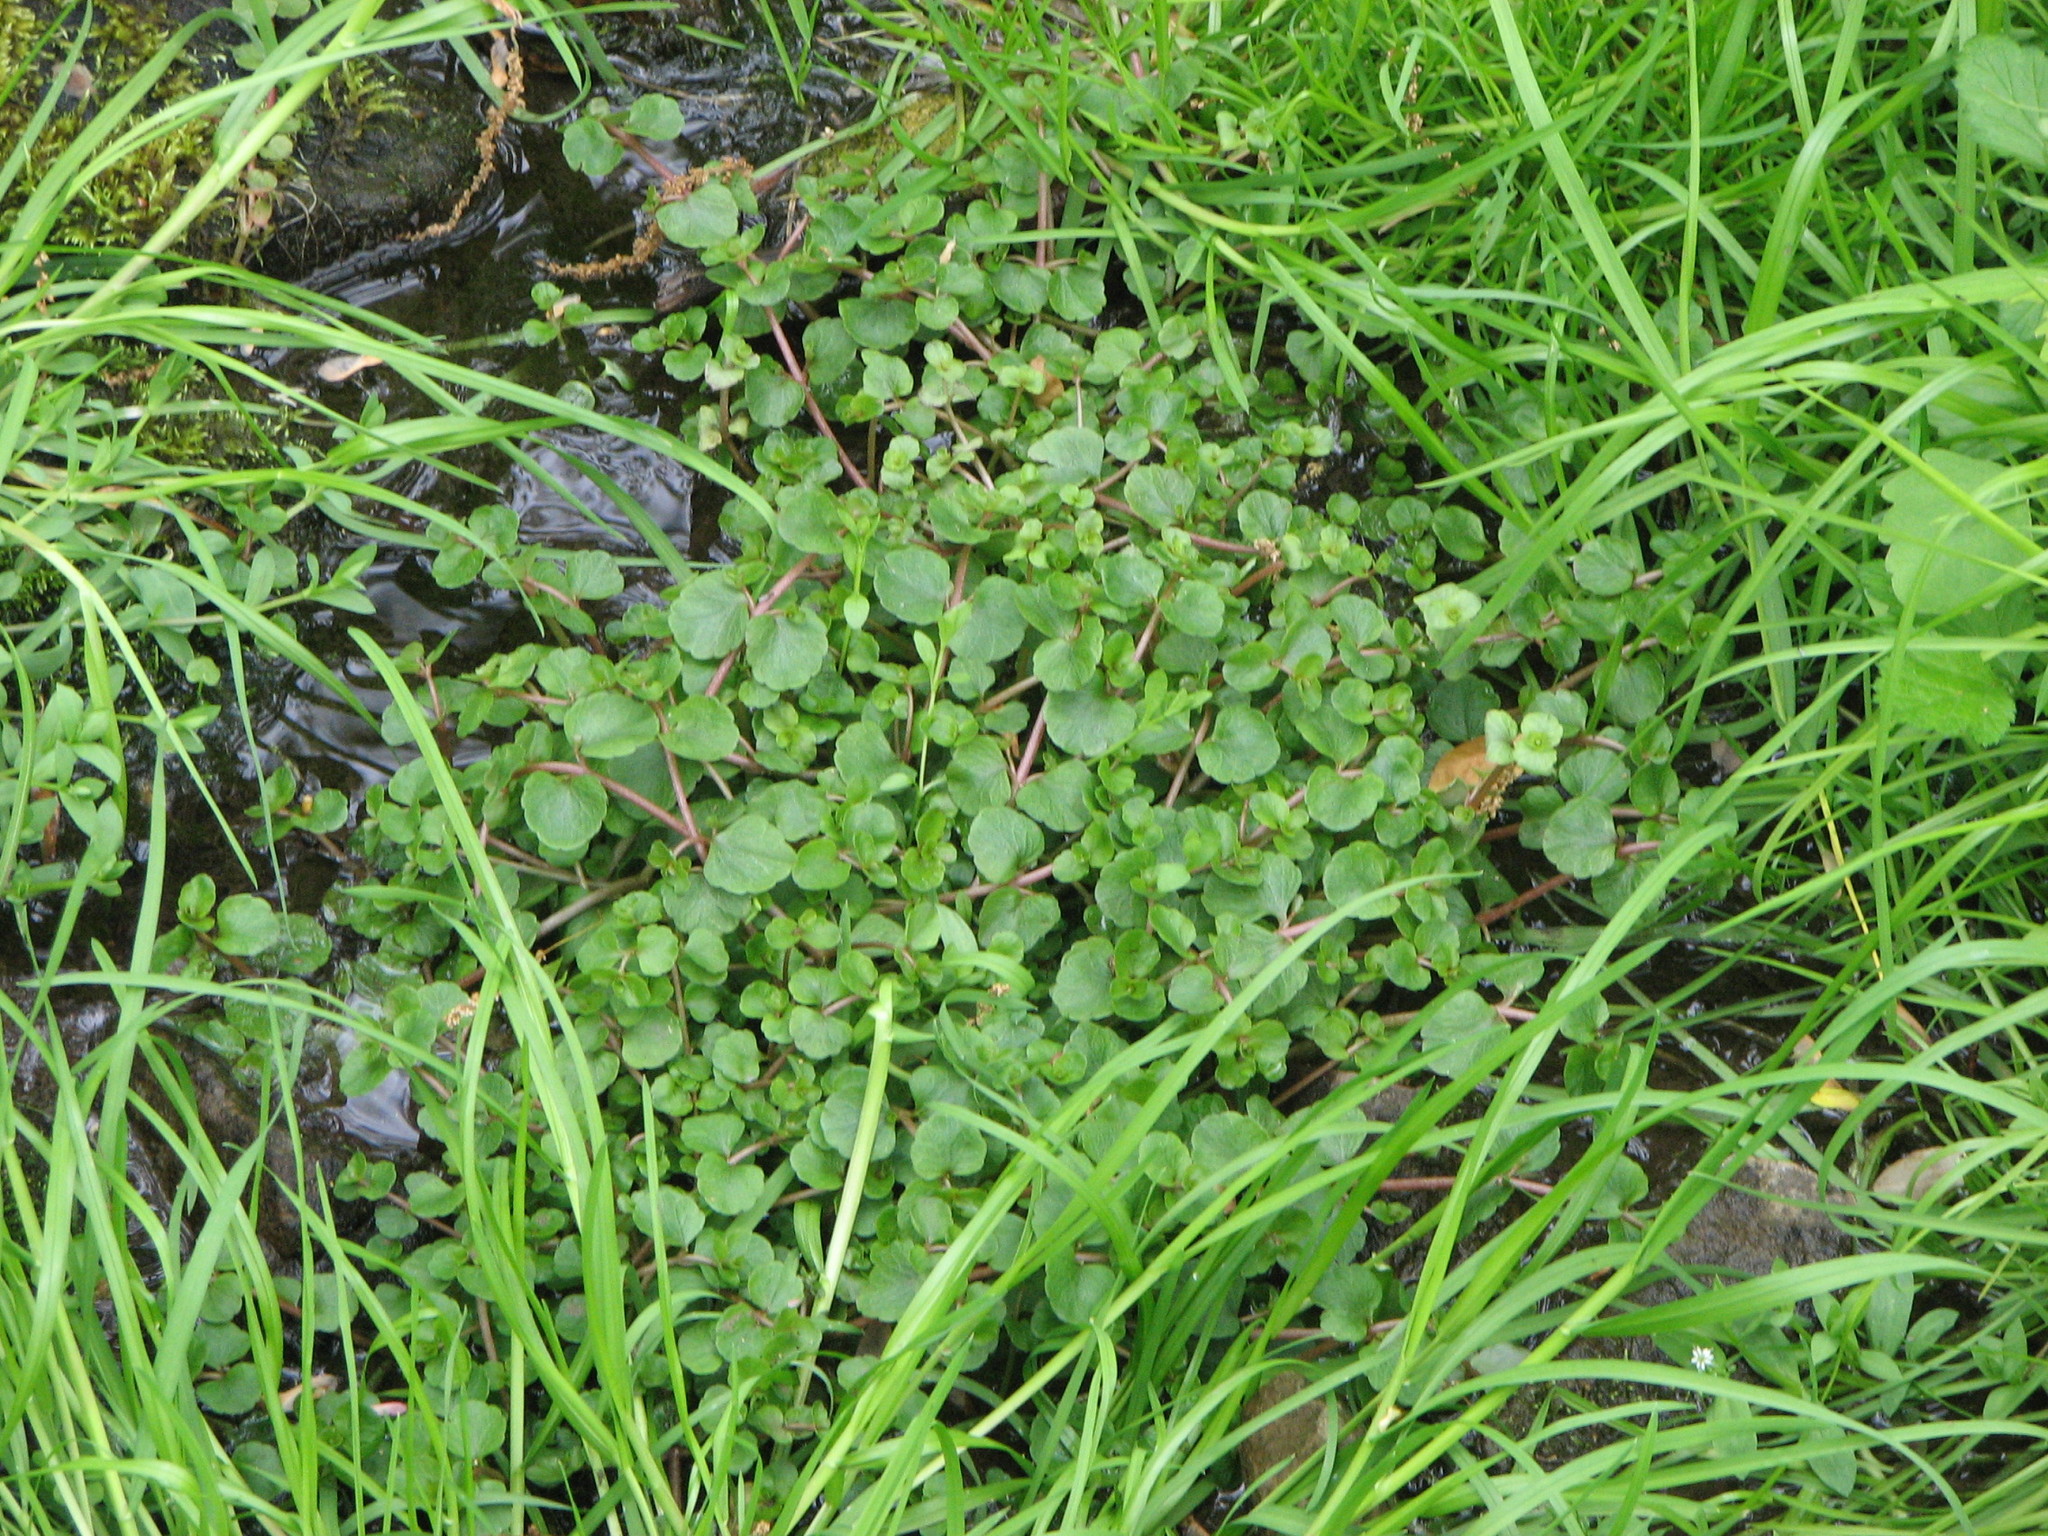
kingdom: Plantae
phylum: Tracheophyta
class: Magnoliopsida
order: Saxifragales
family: Saxifragaceae
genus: Chrysosplenium
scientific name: Chrysosplenium americanum
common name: American golden-saxifrage
